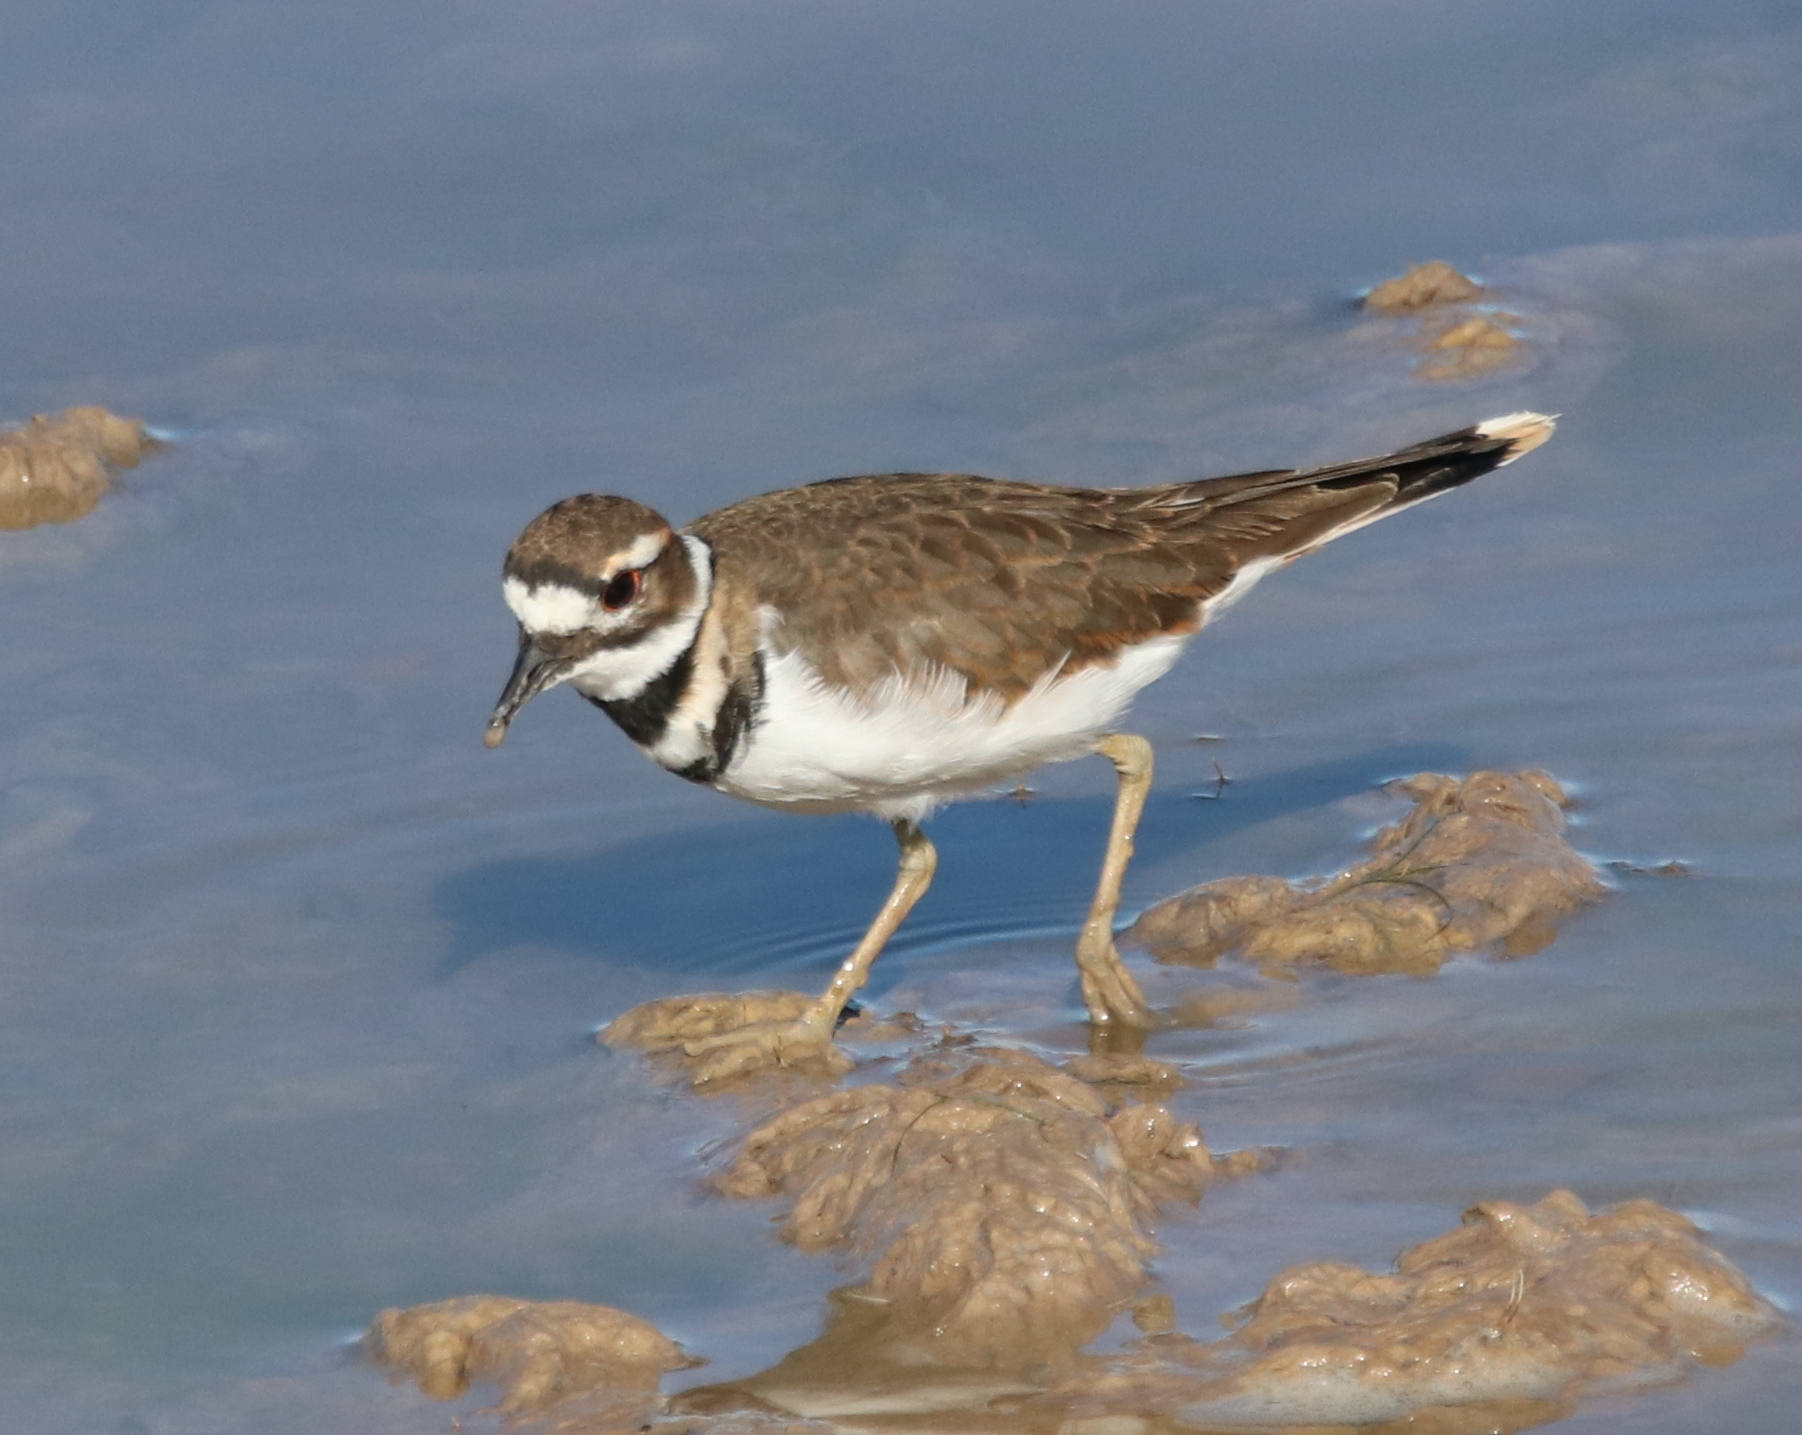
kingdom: Animalia
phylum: Chordata
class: Aves
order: Charadriiformes
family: Charadriidae
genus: Charadrius
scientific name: Charadrius vociferus
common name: Killdeer
